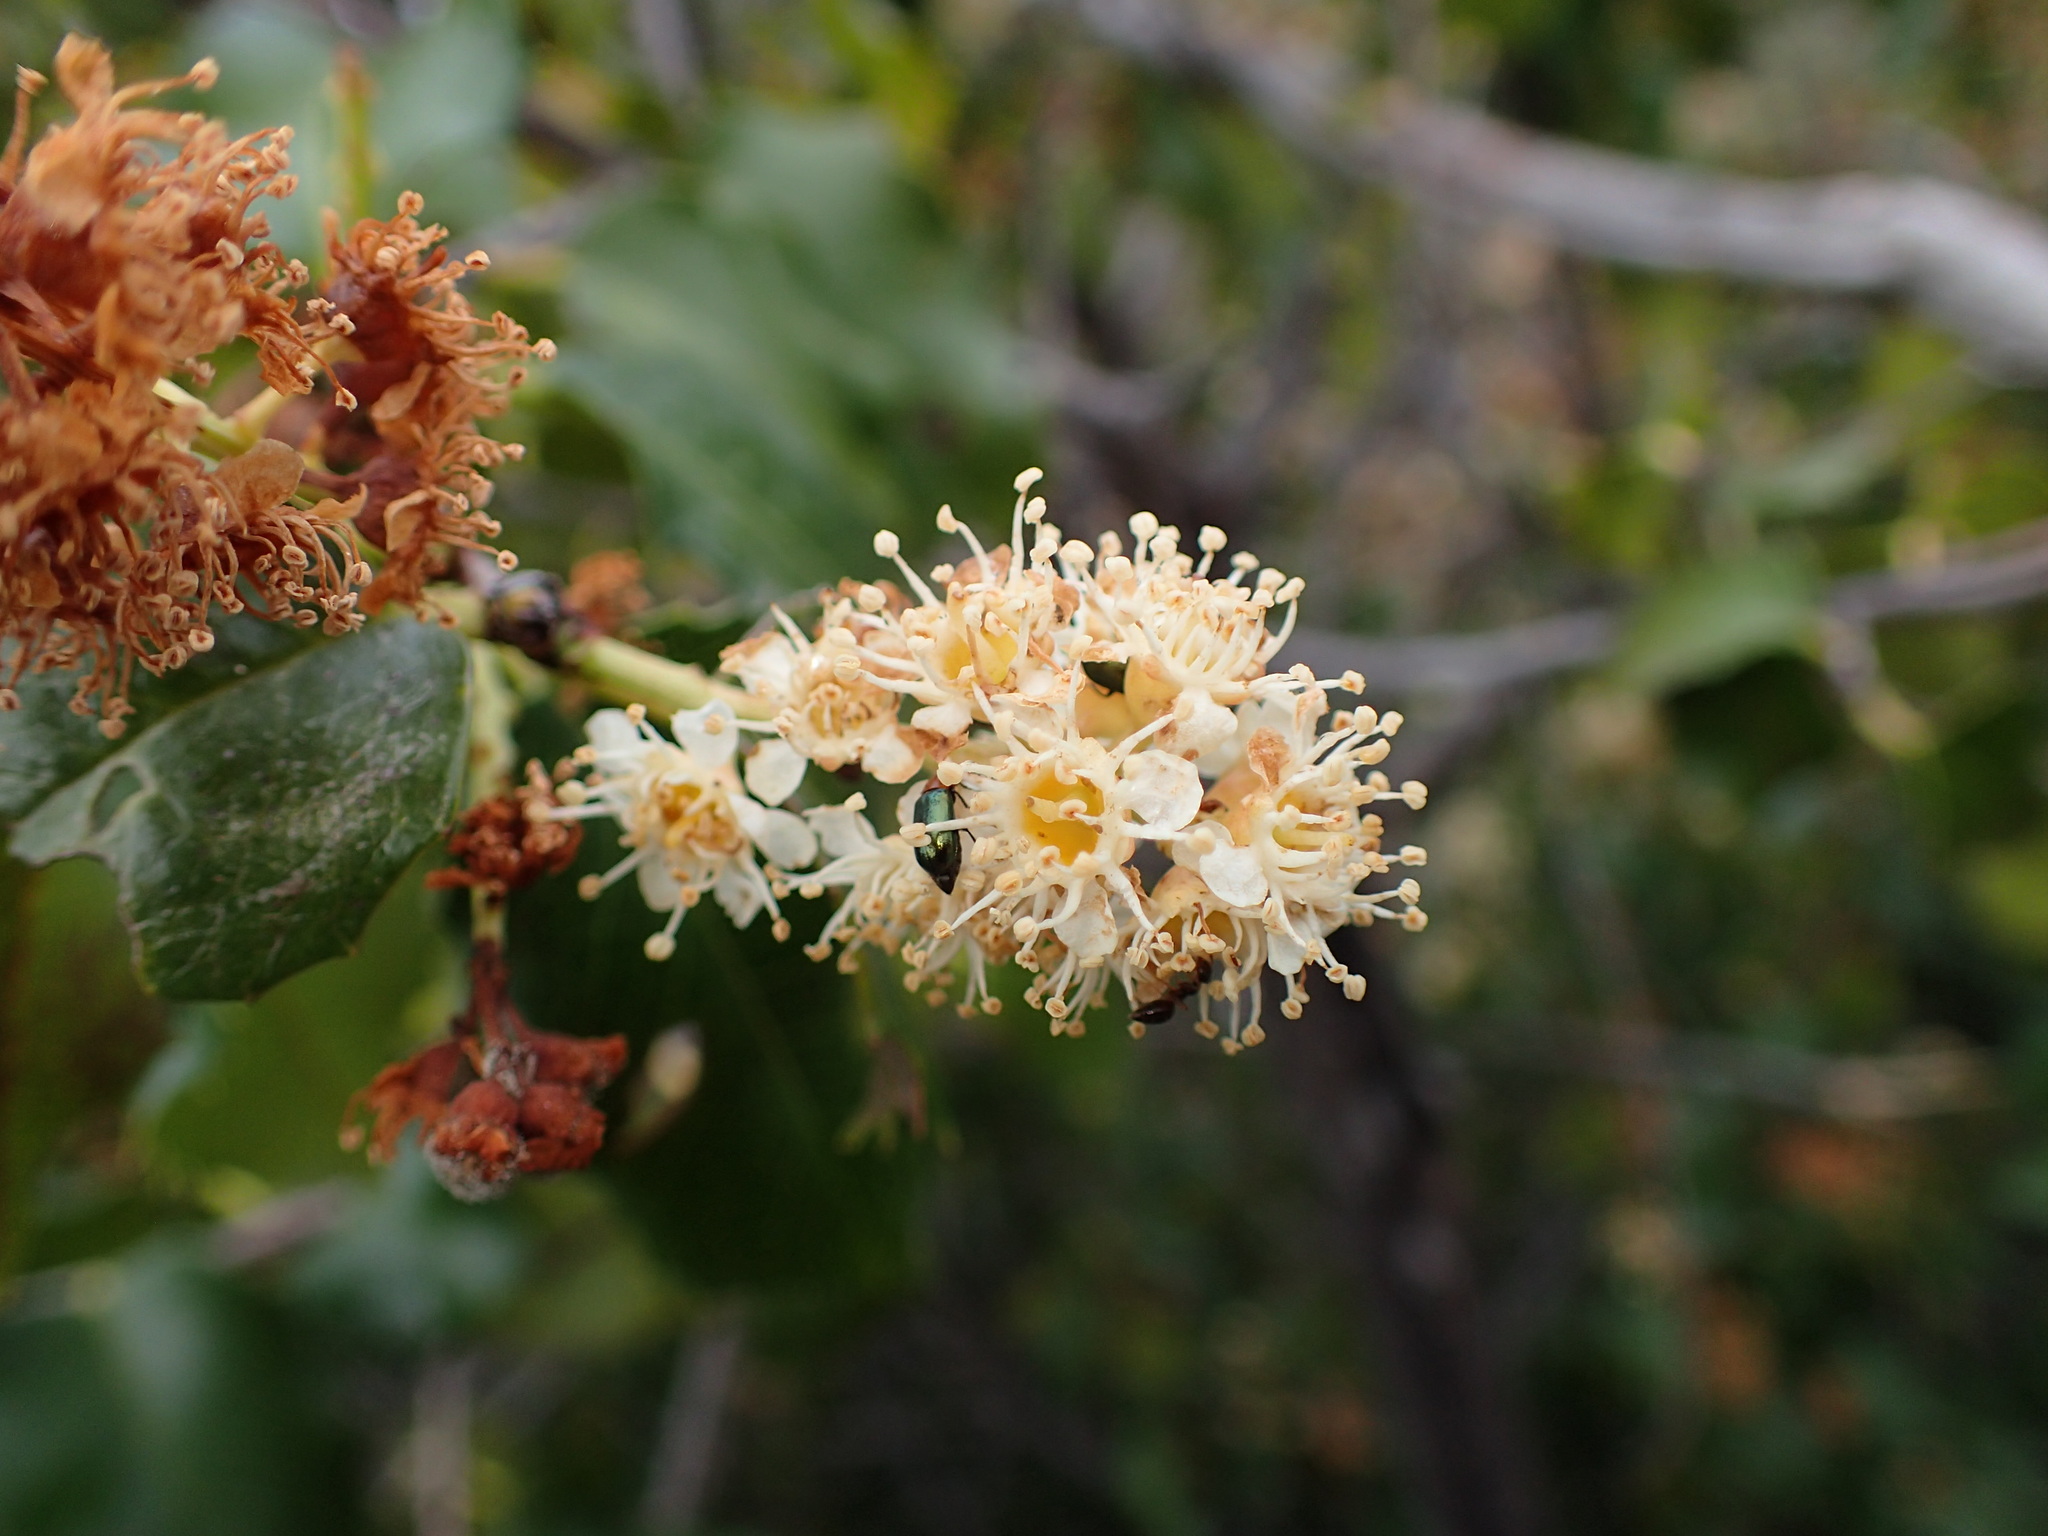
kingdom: Plantae
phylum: Tracheophyta
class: Magnoliopsida
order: Rosales
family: Rosaceae
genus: Prunus
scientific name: Prunus ilicifolia
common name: Hollyleaf cherry
